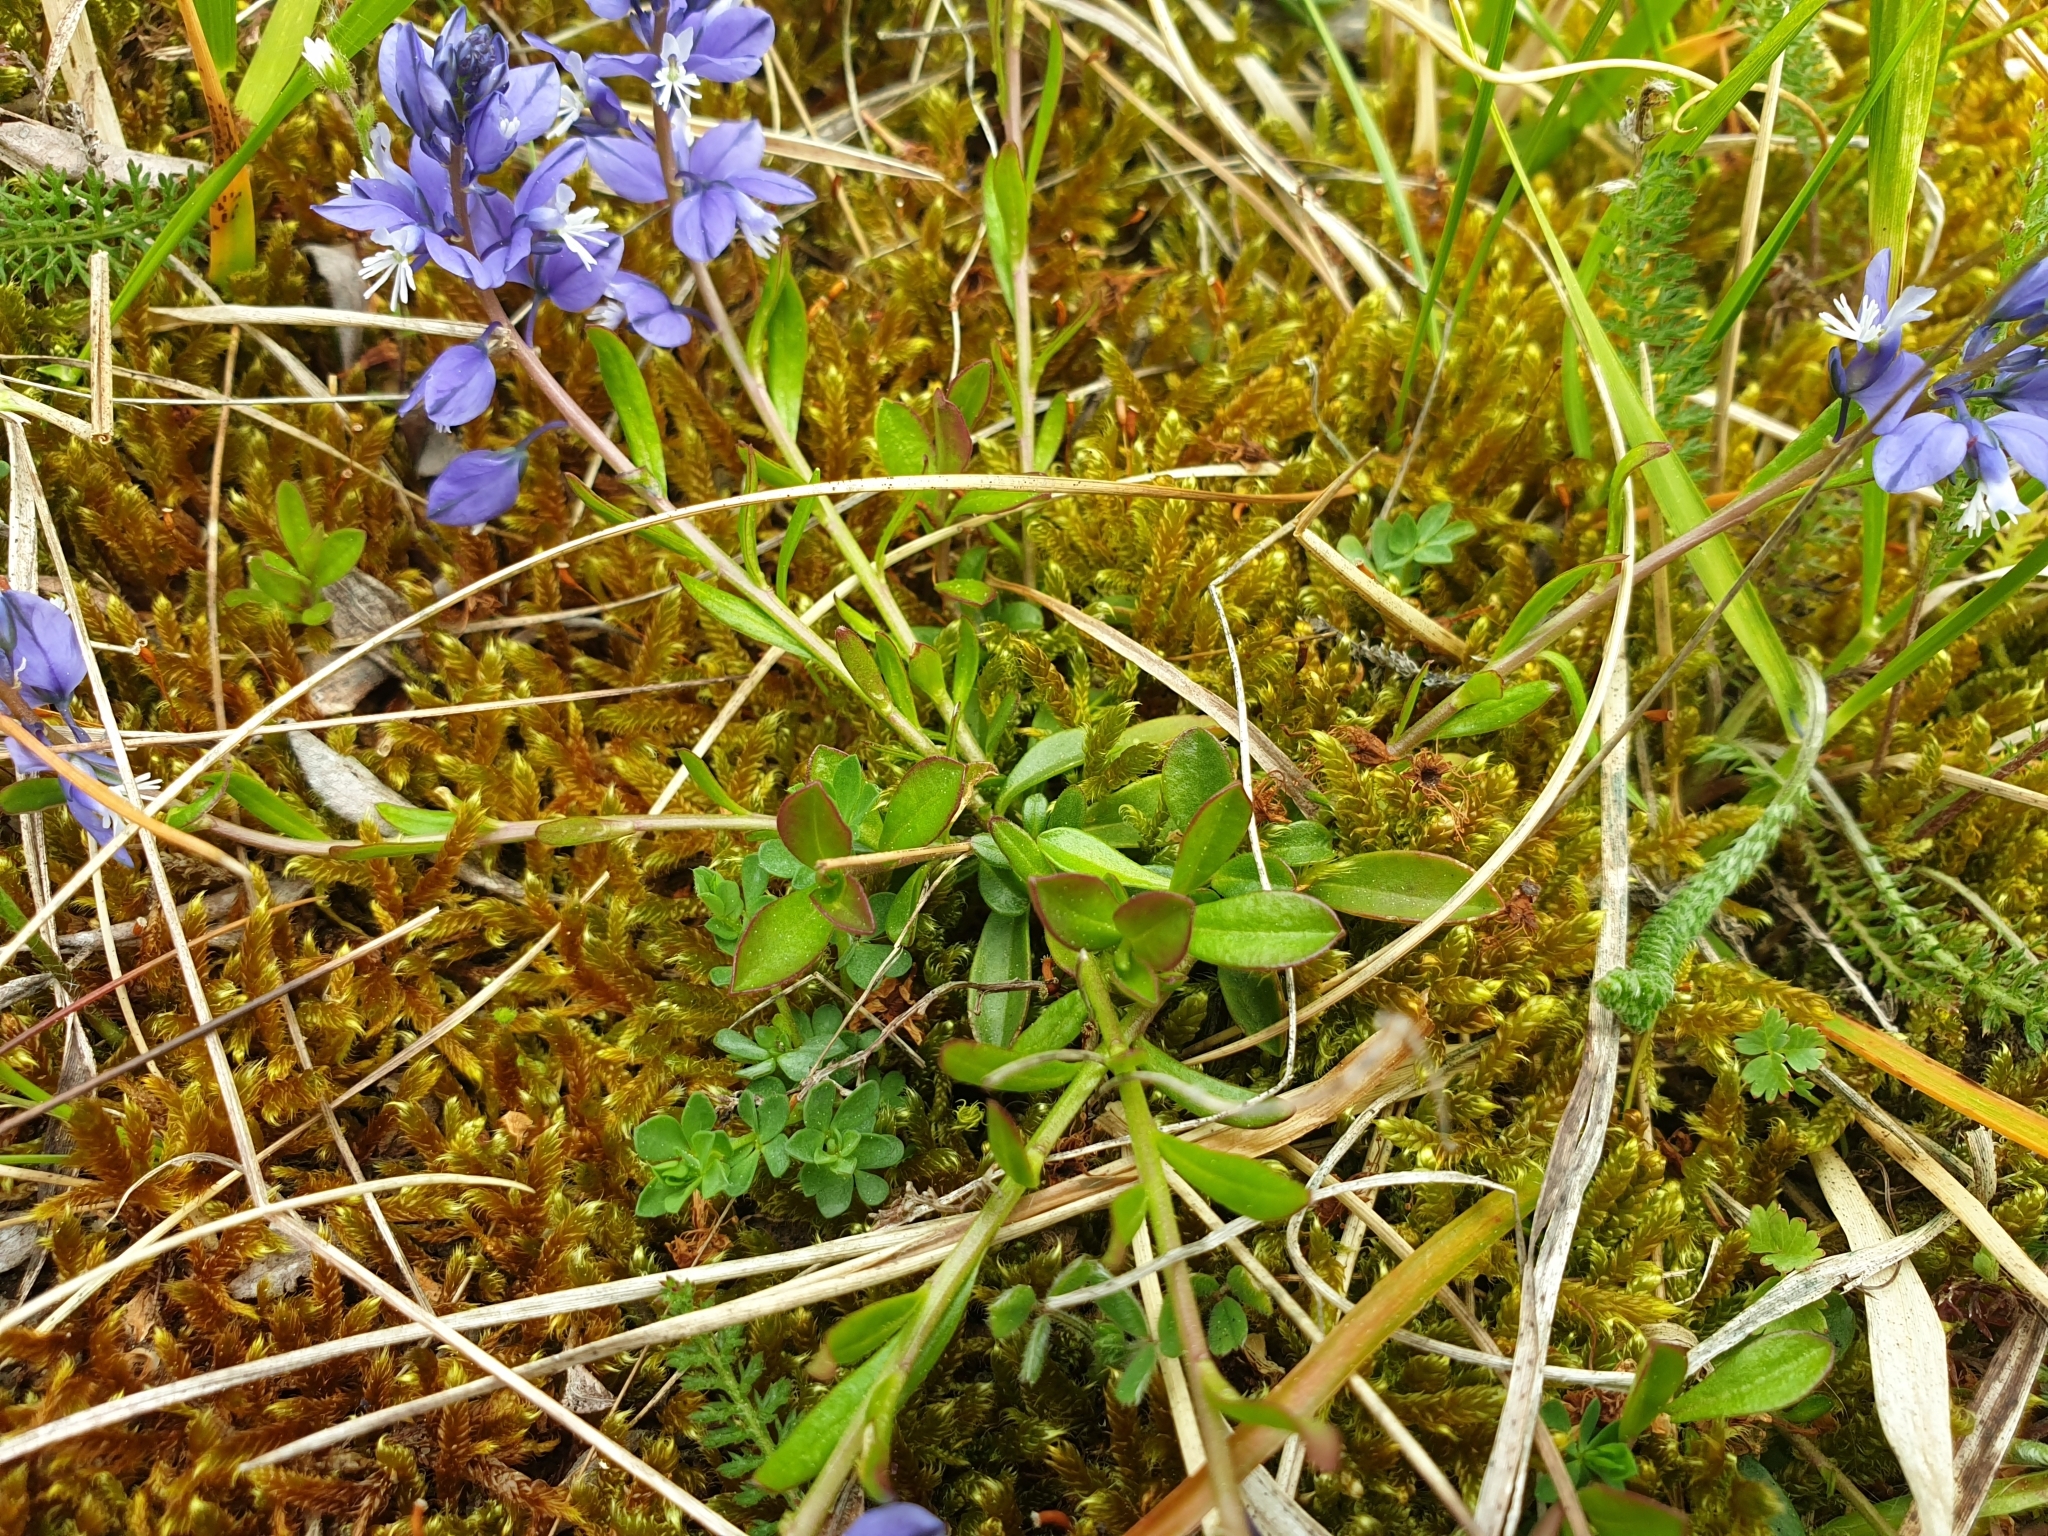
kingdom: Plantae
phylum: Tracheophyta
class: Magnoliopsida
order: Fabales
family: Polygalaceae
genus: Polygala
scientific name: Polygala vulgaris
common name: Common milkwort
